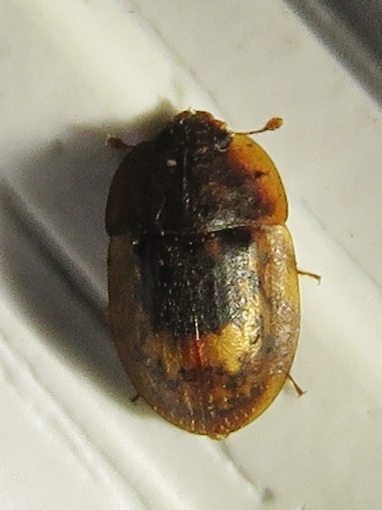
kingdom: Animalia
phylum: Arthropoda
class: Insecta
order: Coleoptera
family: Nitidulidae
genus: Lobiopa
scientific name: Lobiopa insularis
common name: Sap beetle
